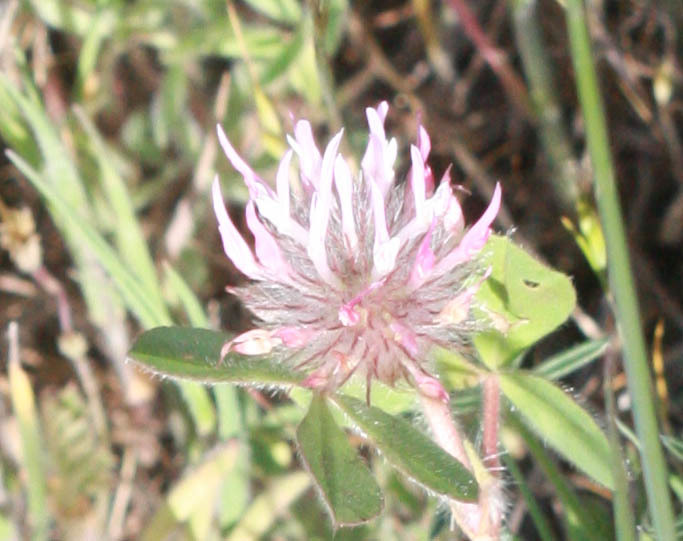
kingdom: Plantae
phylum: Tracheophyta
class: Magnoliopsida
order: Fabales
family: Fabaceae
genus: Trifolium
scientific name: Trifolium hirtum
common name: Rose clover
